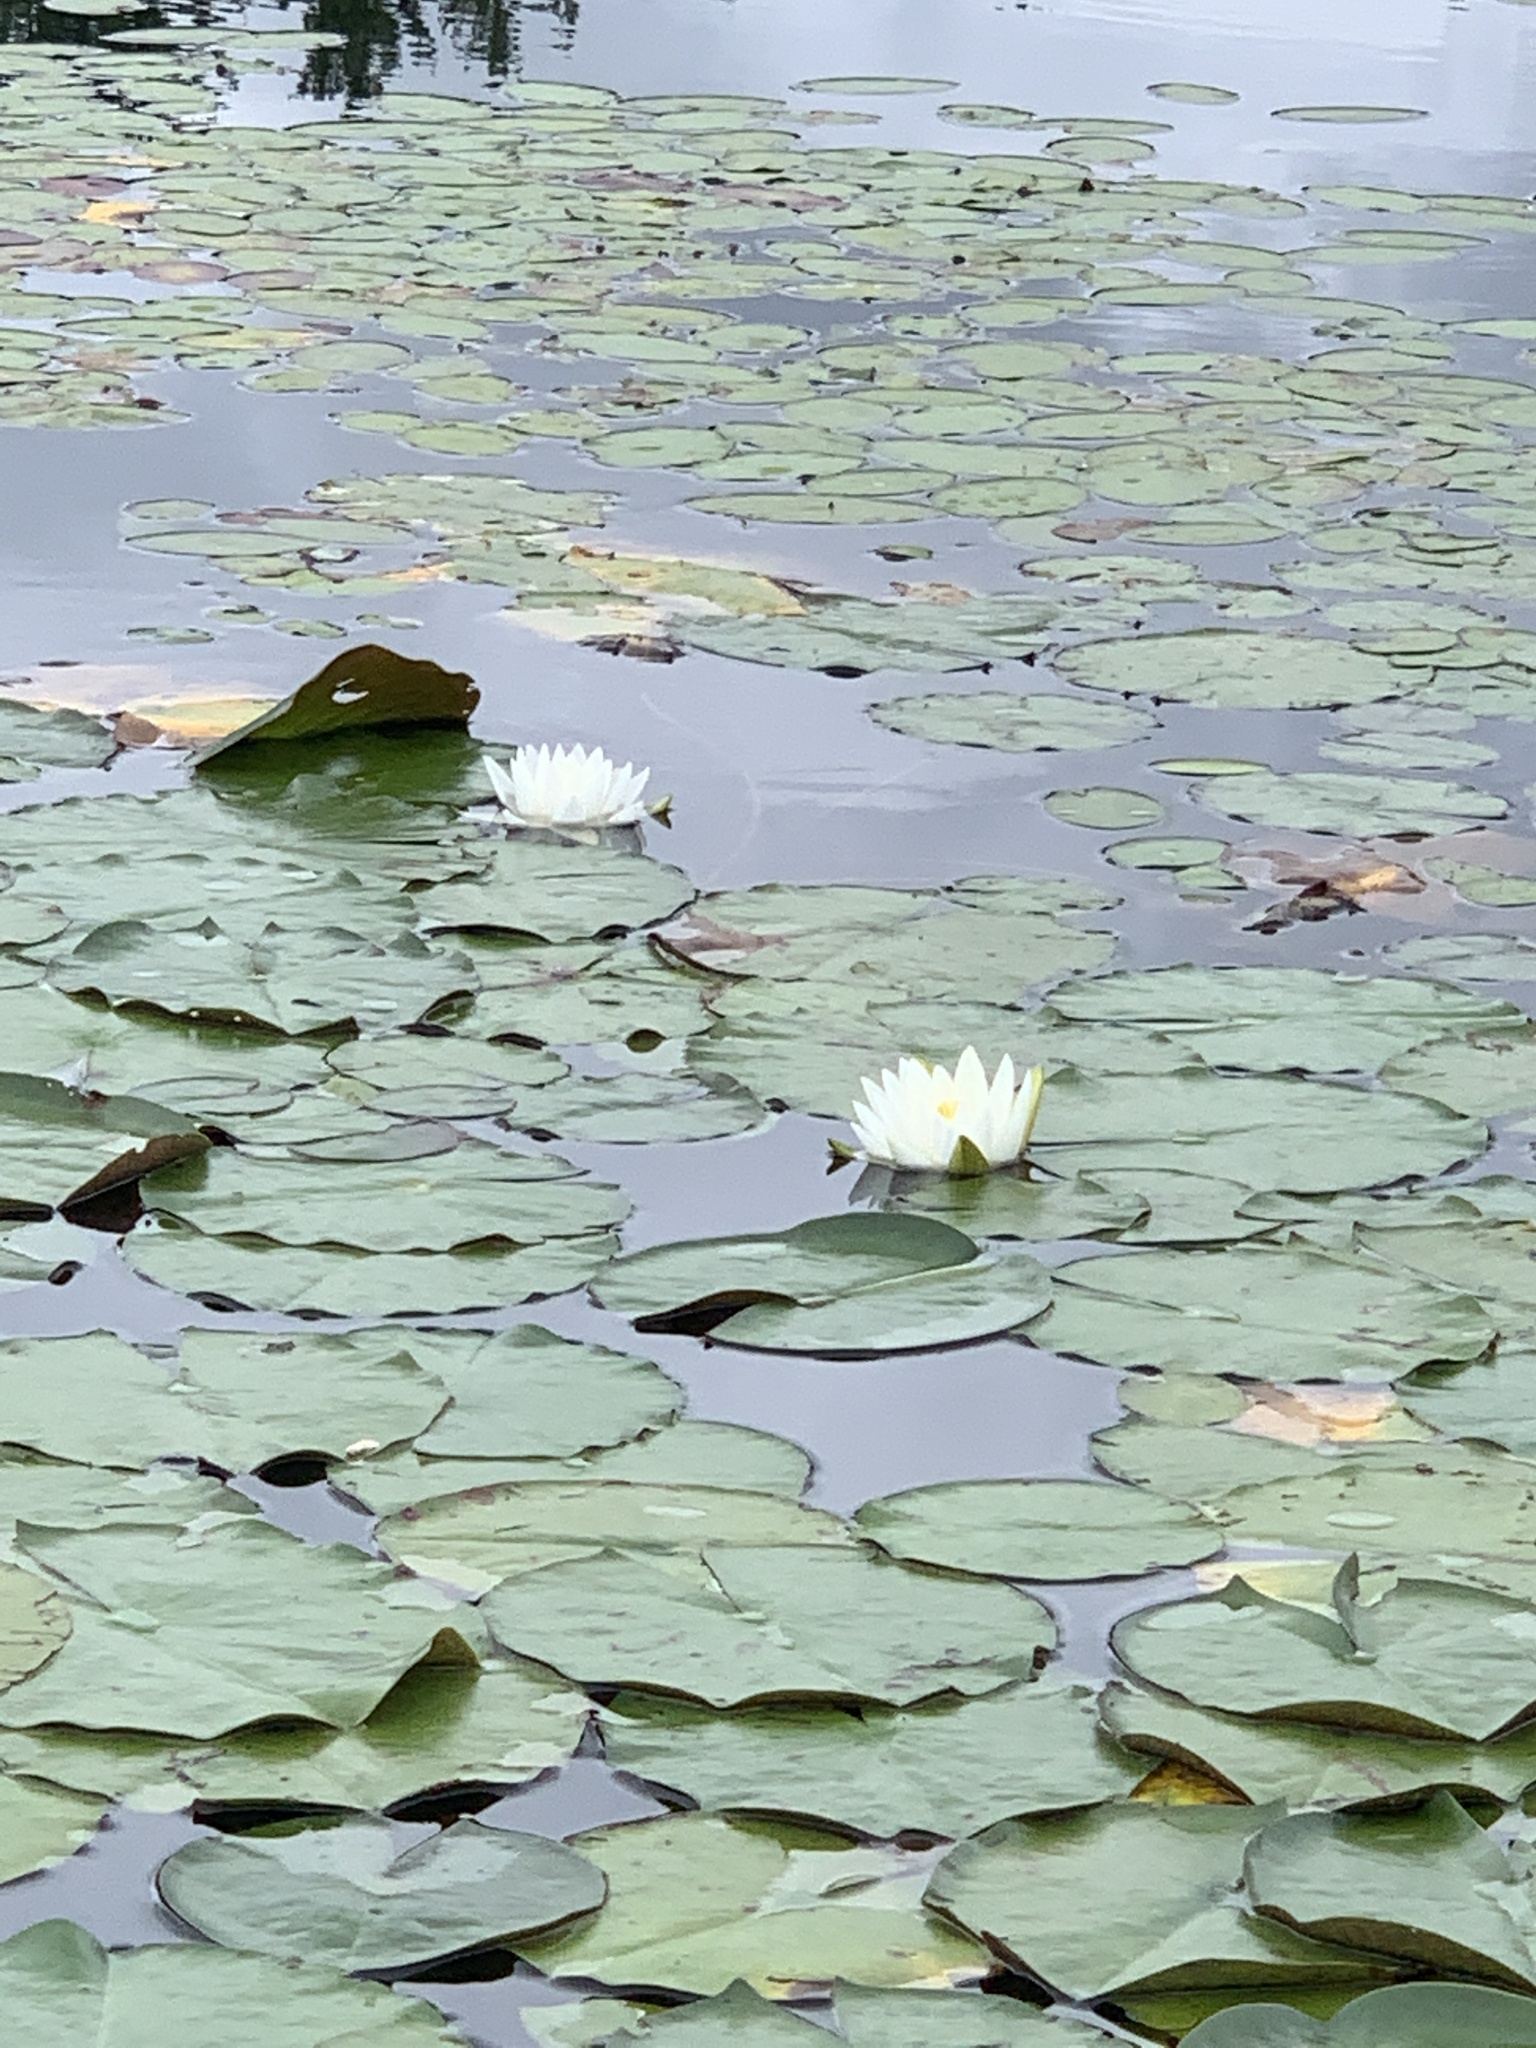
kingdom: Plantae
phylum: Tracheophyta
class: Magnoliopsida
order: Nymphaeales
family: Nymphaeaceae
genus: Nymphaea
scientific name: Nymphaea odorata
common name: Fragrant water-lily
